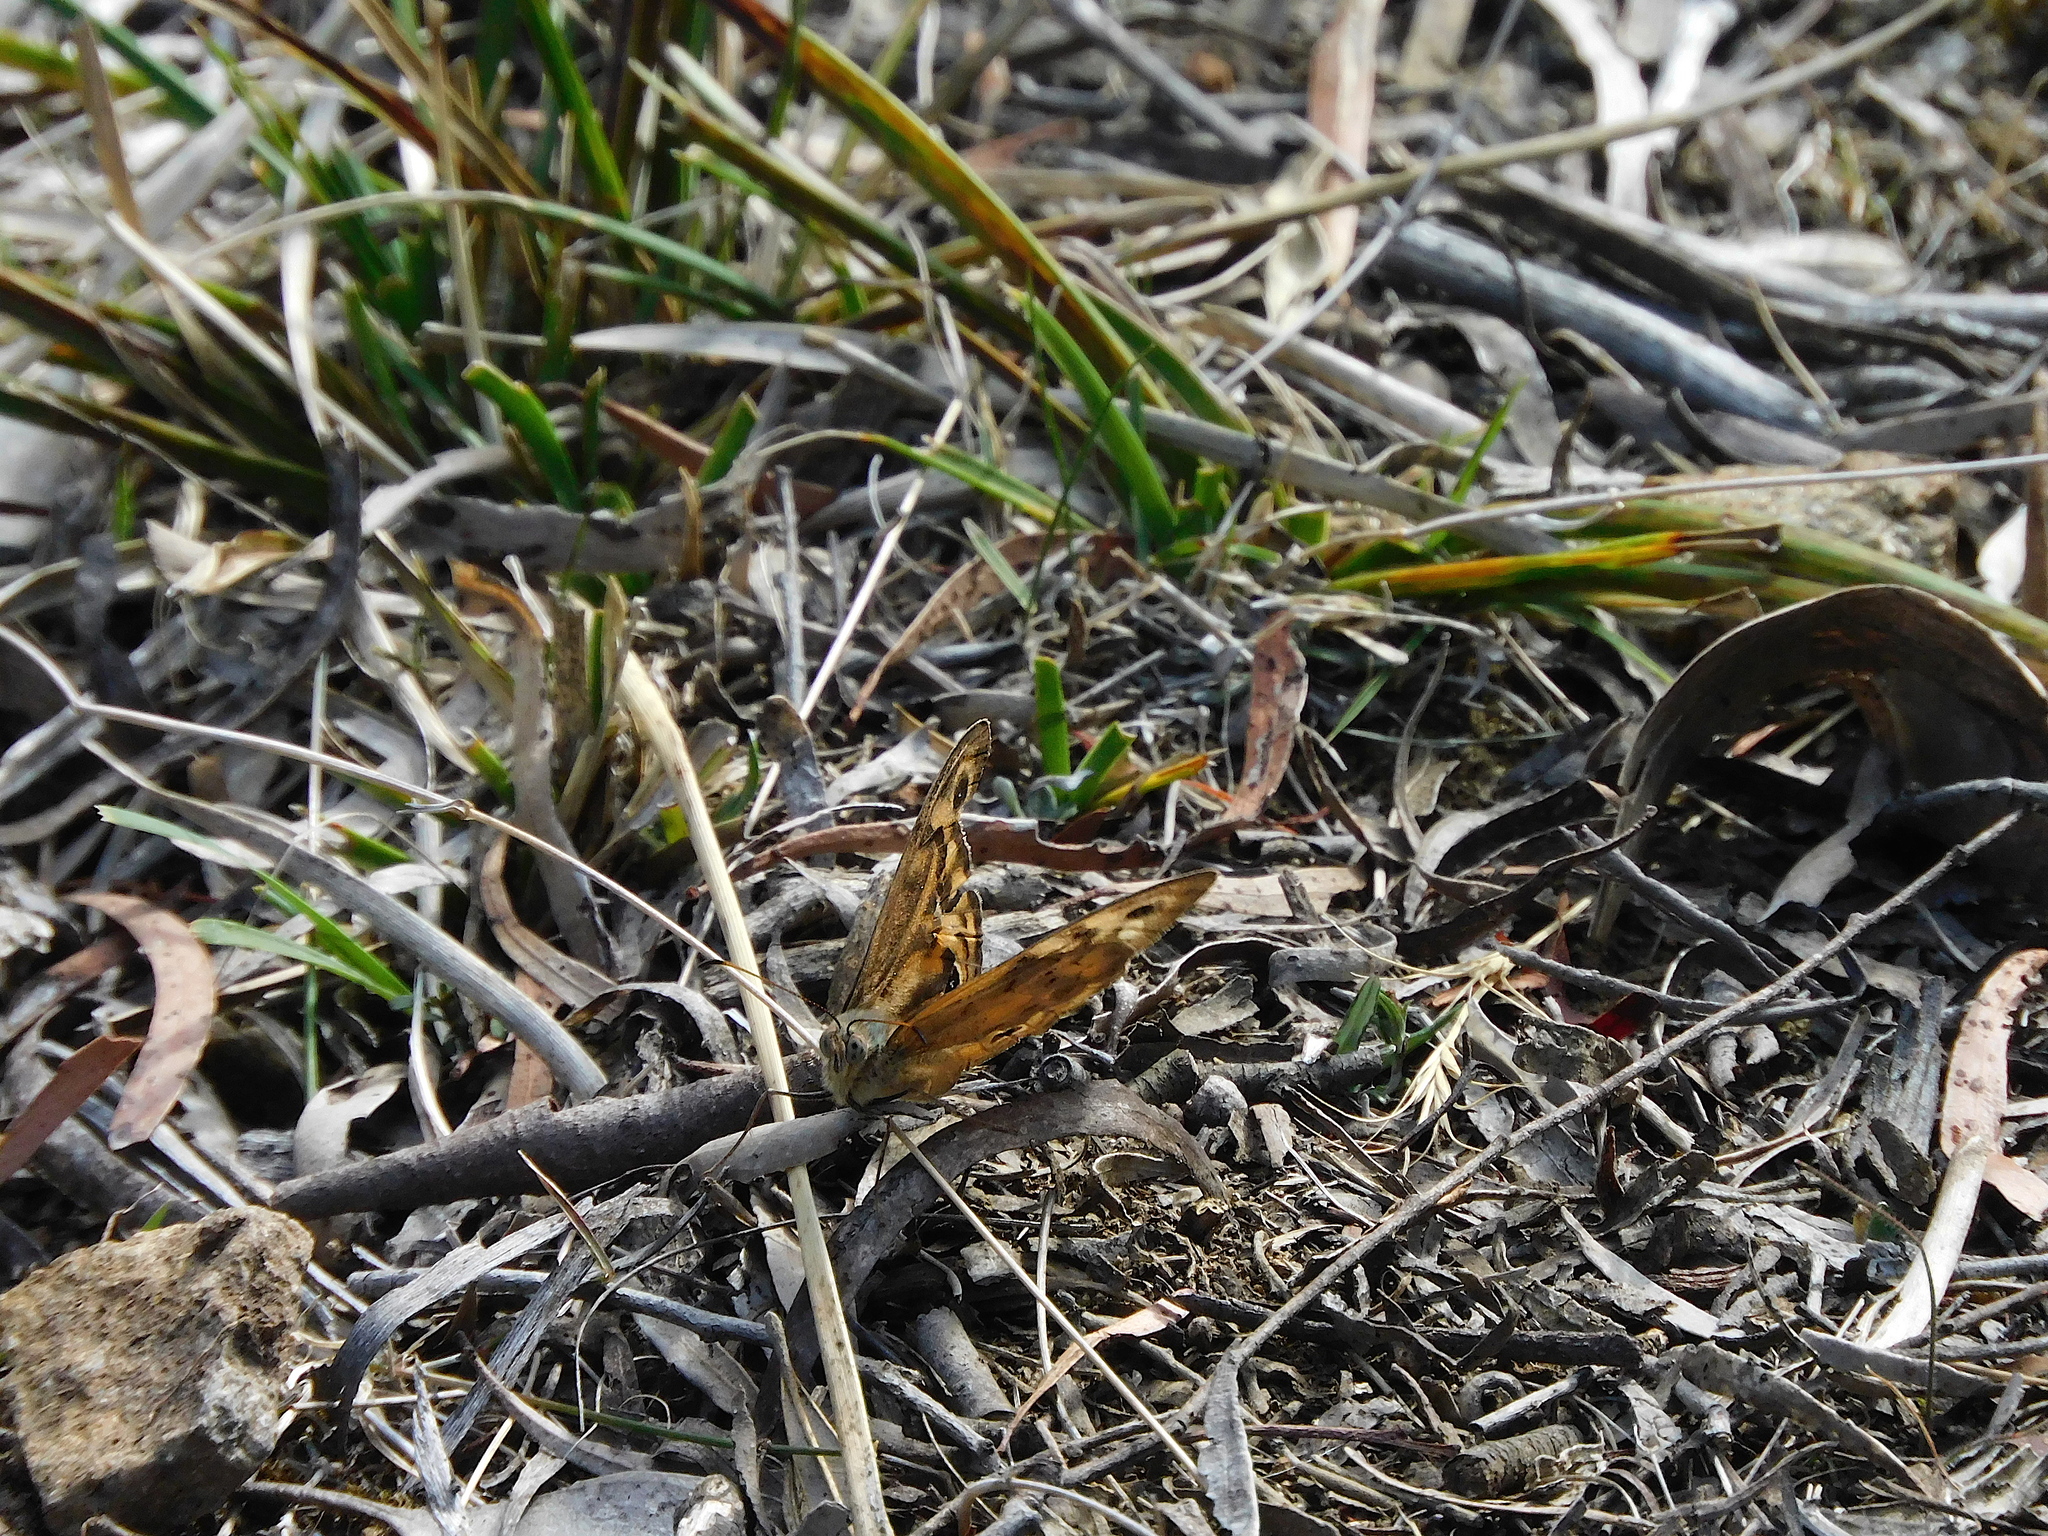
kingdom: Animalia
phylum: Arthropoda
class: Insecta
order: Lepidoptera
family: Nymphalidae
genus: Heteronympha
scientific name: Heteronympha merope
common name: Common brown
